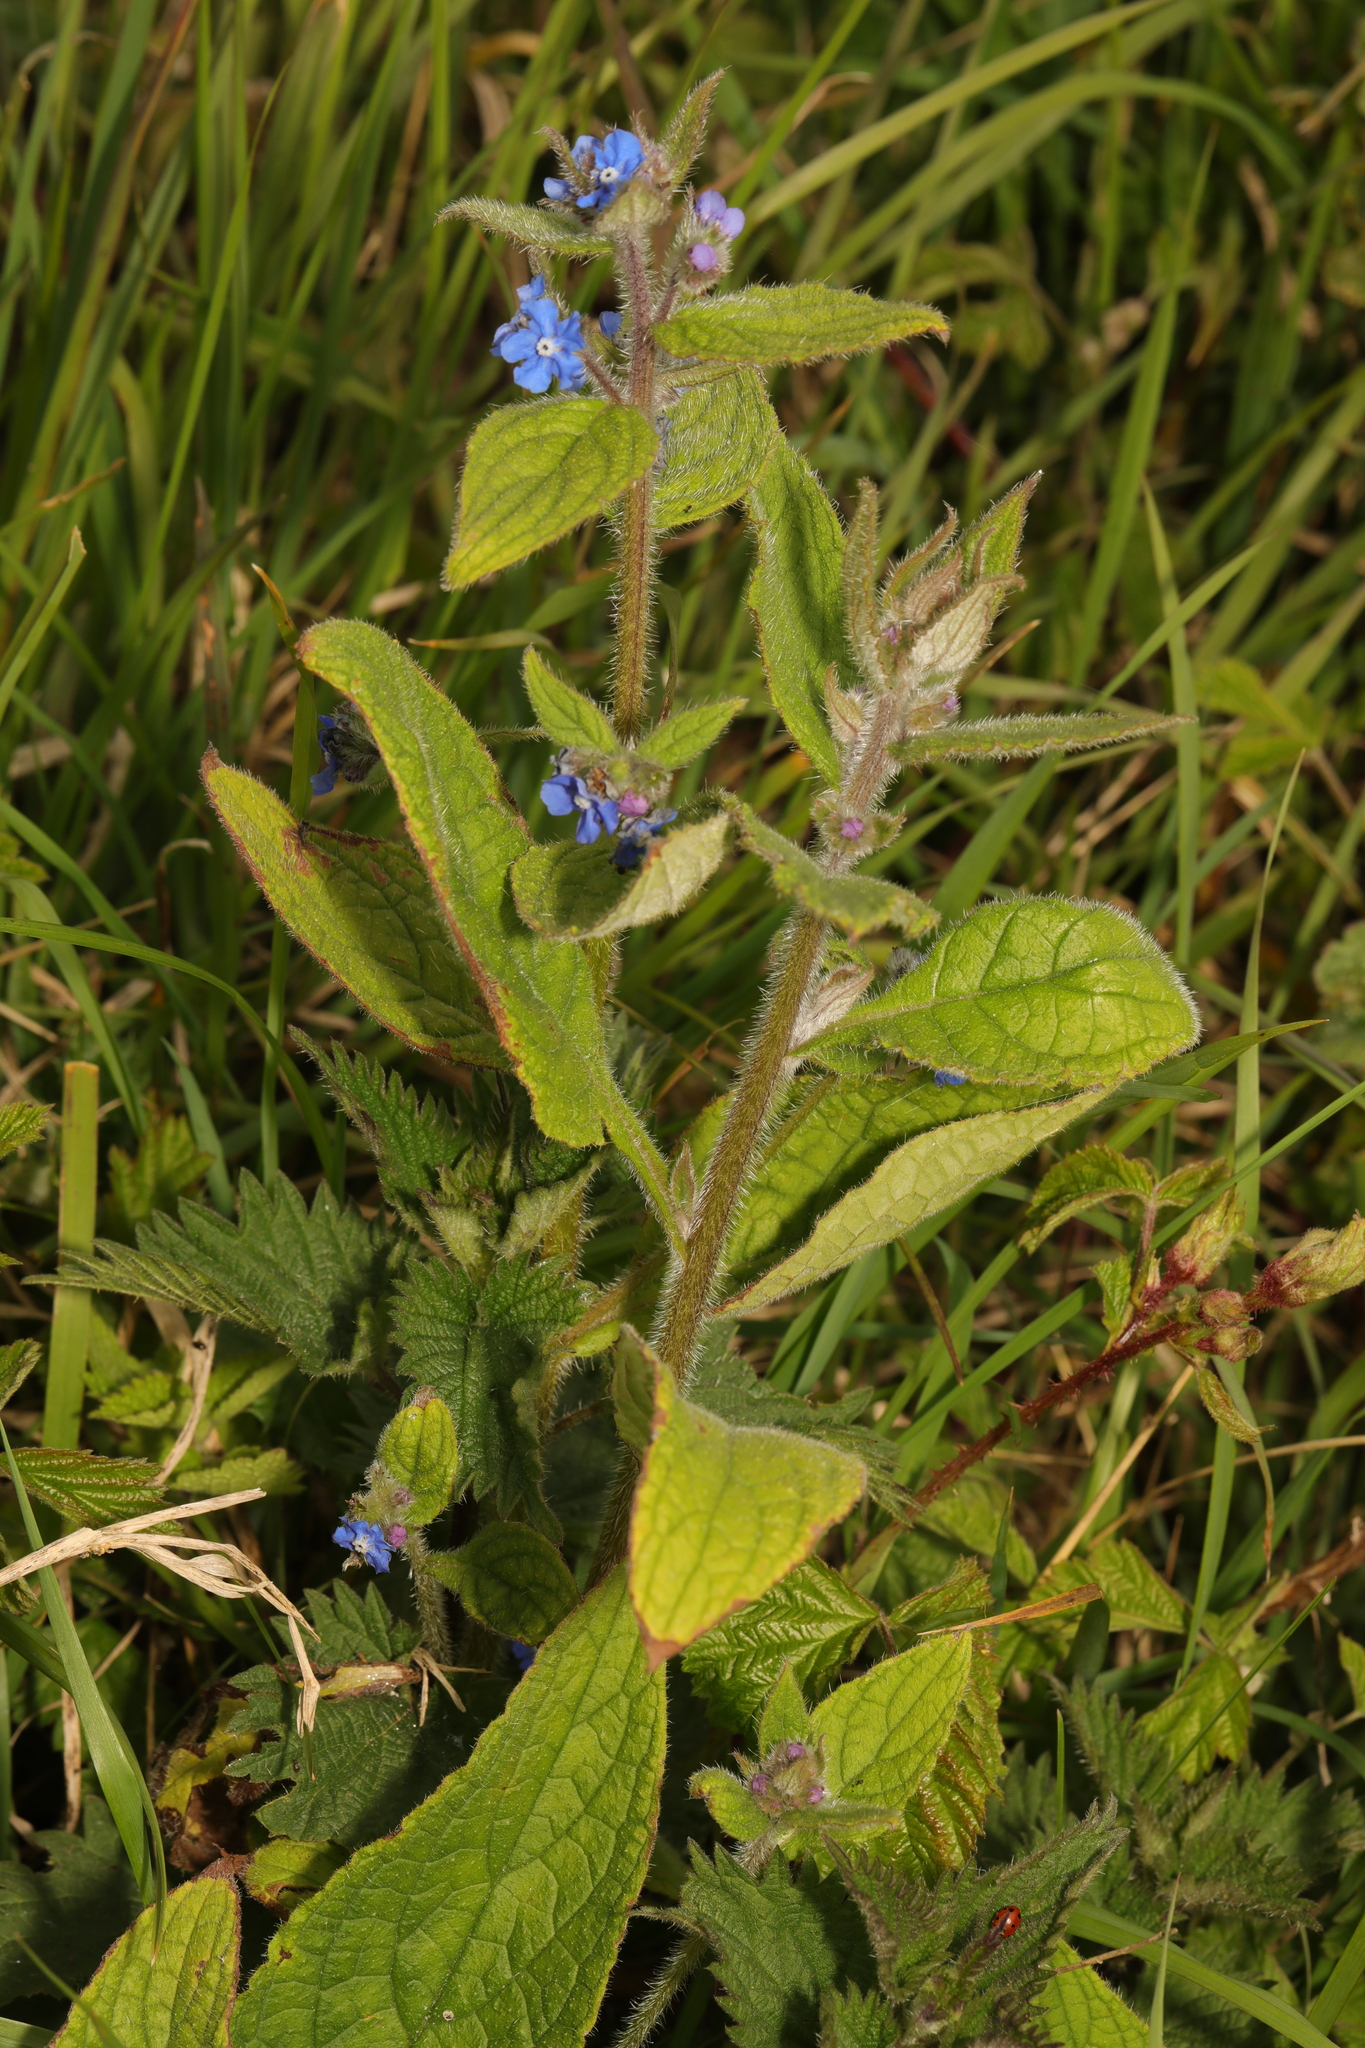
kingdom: Plantae
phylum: Tracheophyta
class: Magnoliopsida
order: Boraginales
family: Boraginaceae
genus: Pentaglottis
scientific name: Pentaglottis sempervirens
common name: Green alkanet
